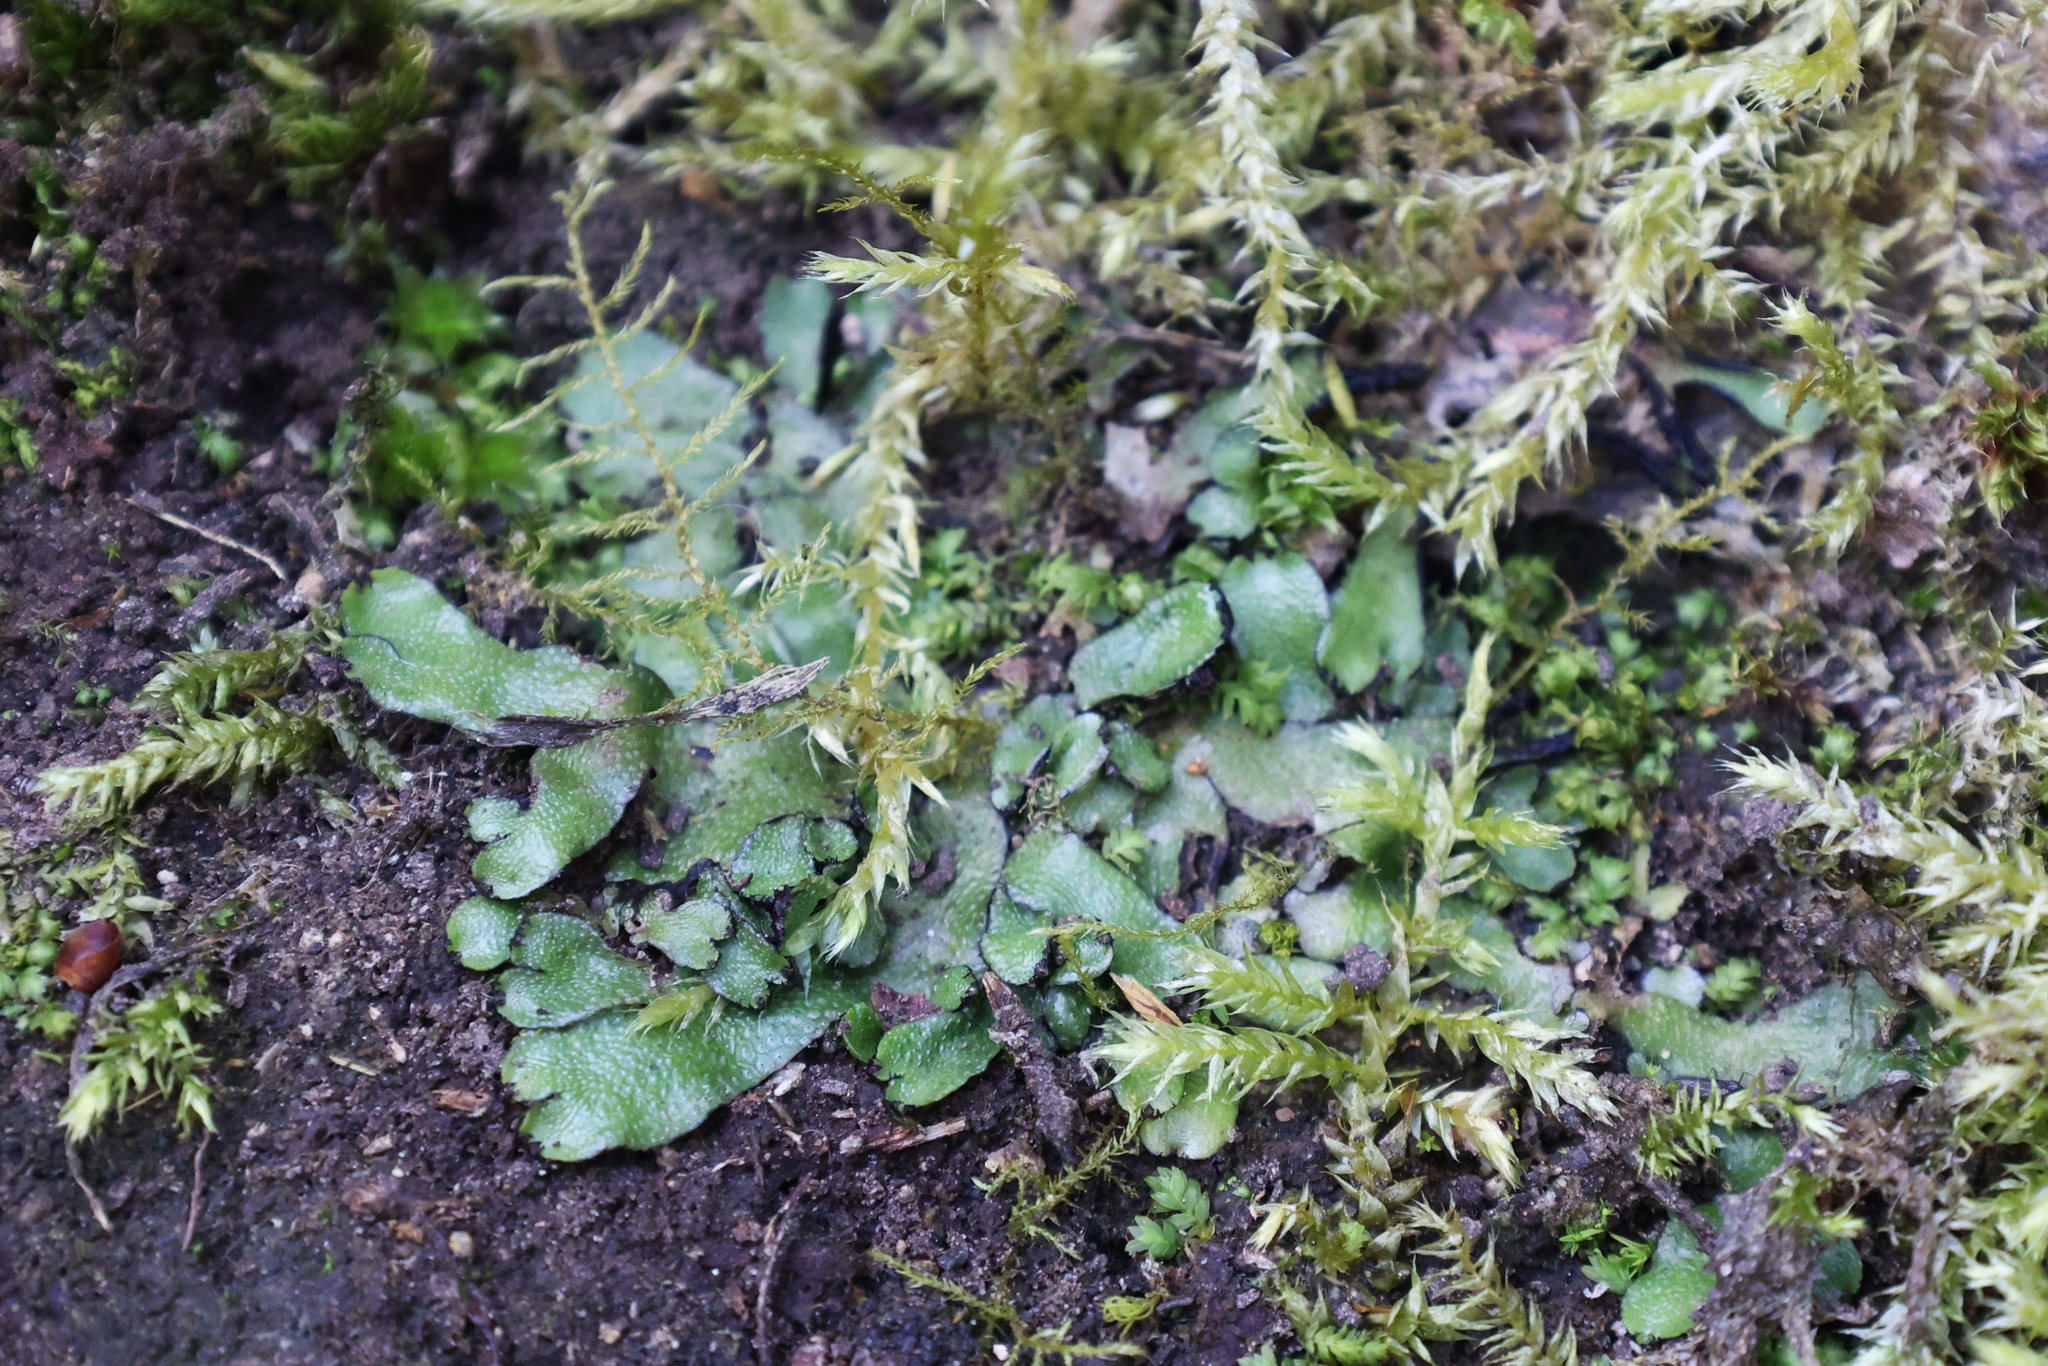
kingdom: Plantae
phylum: Marchantiophyta
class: Marchantiopsida
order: Marchantiales
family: Targioniaceae
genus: Targionia
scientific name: Targionia hypophylla
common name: Orobus-seed liverwort
